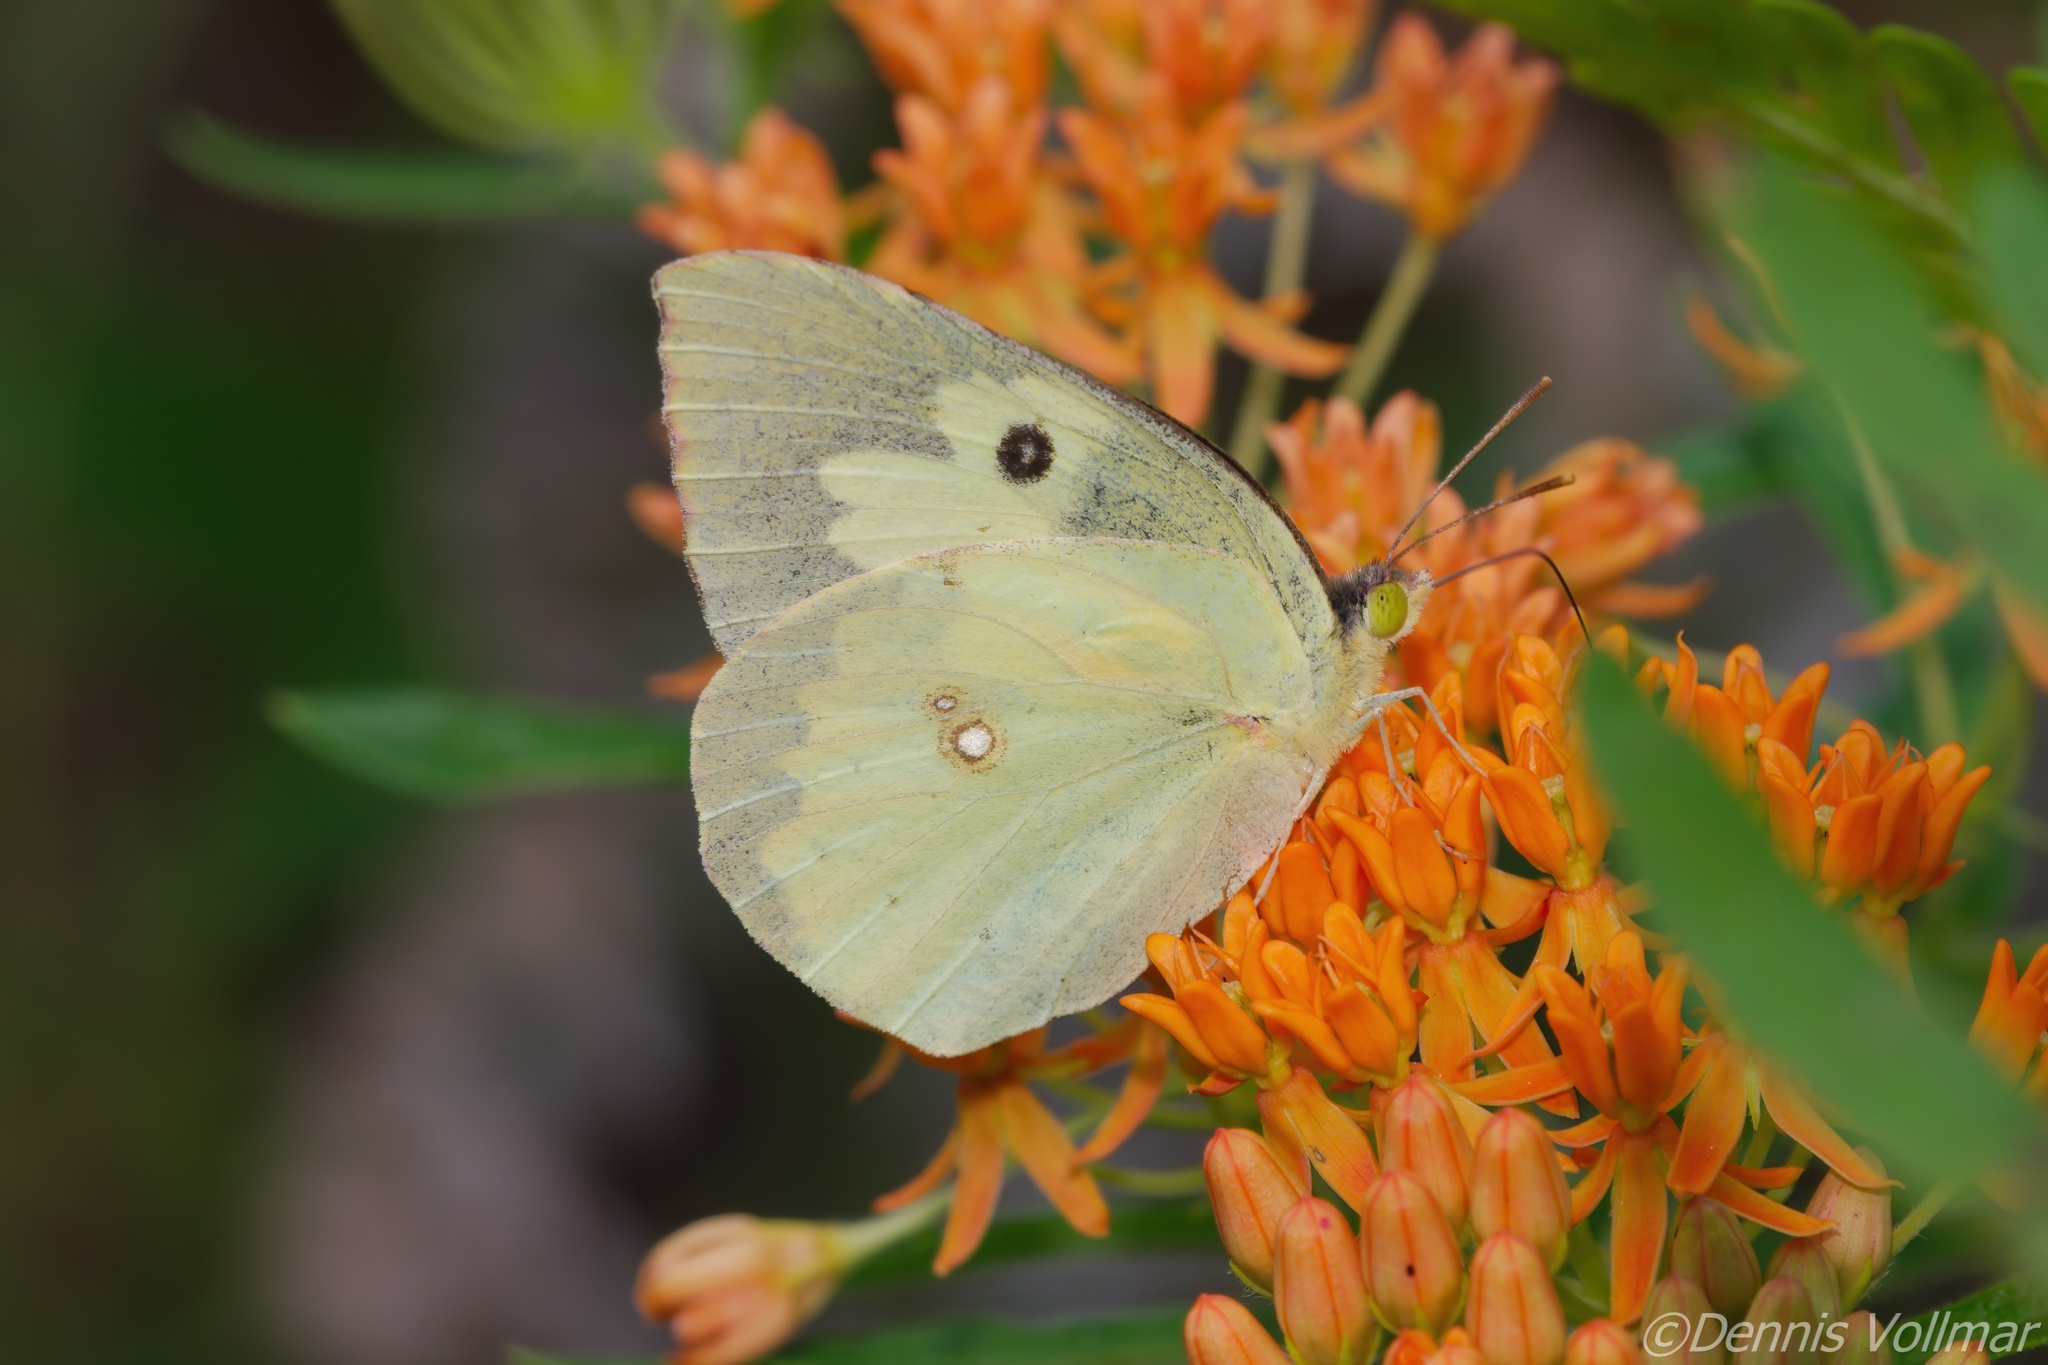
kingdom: Animalia
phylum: Arthropoda
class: Insecta
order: Lepidoptera
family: Pieridae
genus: Zerene
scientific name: Zerene cesonia
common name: Southern dogface
